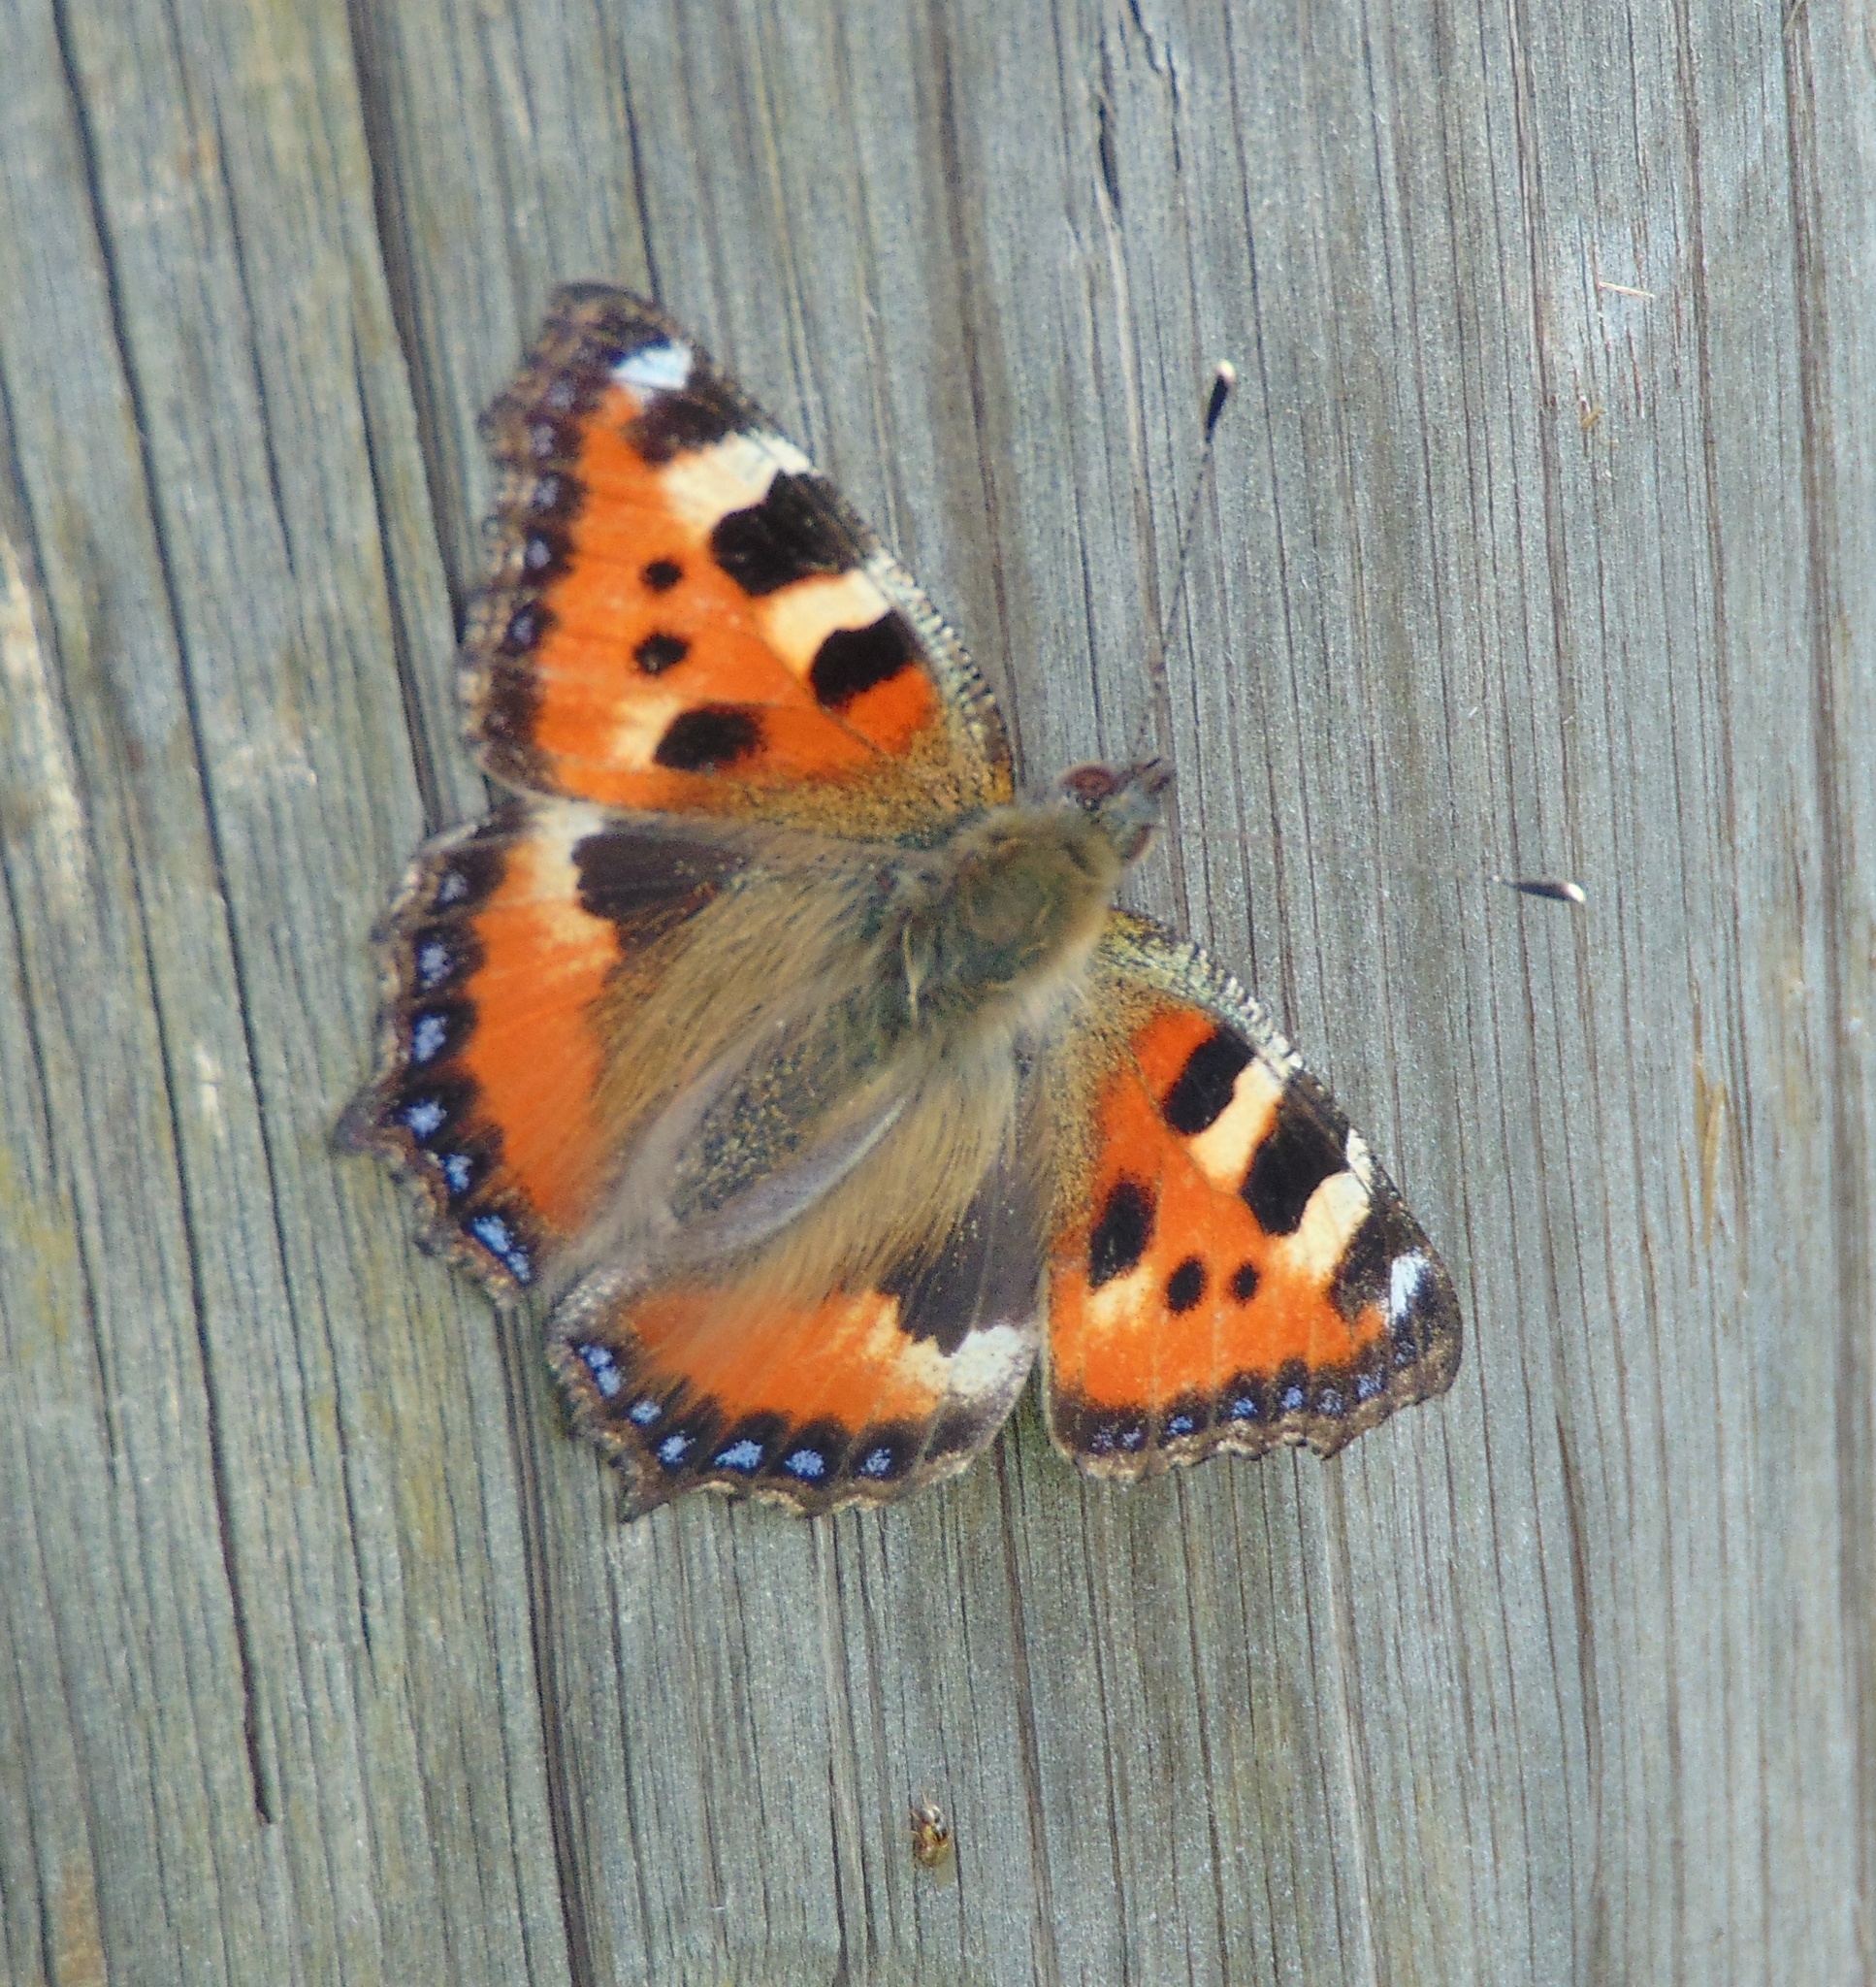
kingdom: Animalia
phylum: Arthropoda
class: Insecta
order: Lepidoptera
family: Nymphalidae
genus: Aglais
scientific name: Aglais urticae
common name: Small tortoiseshell
